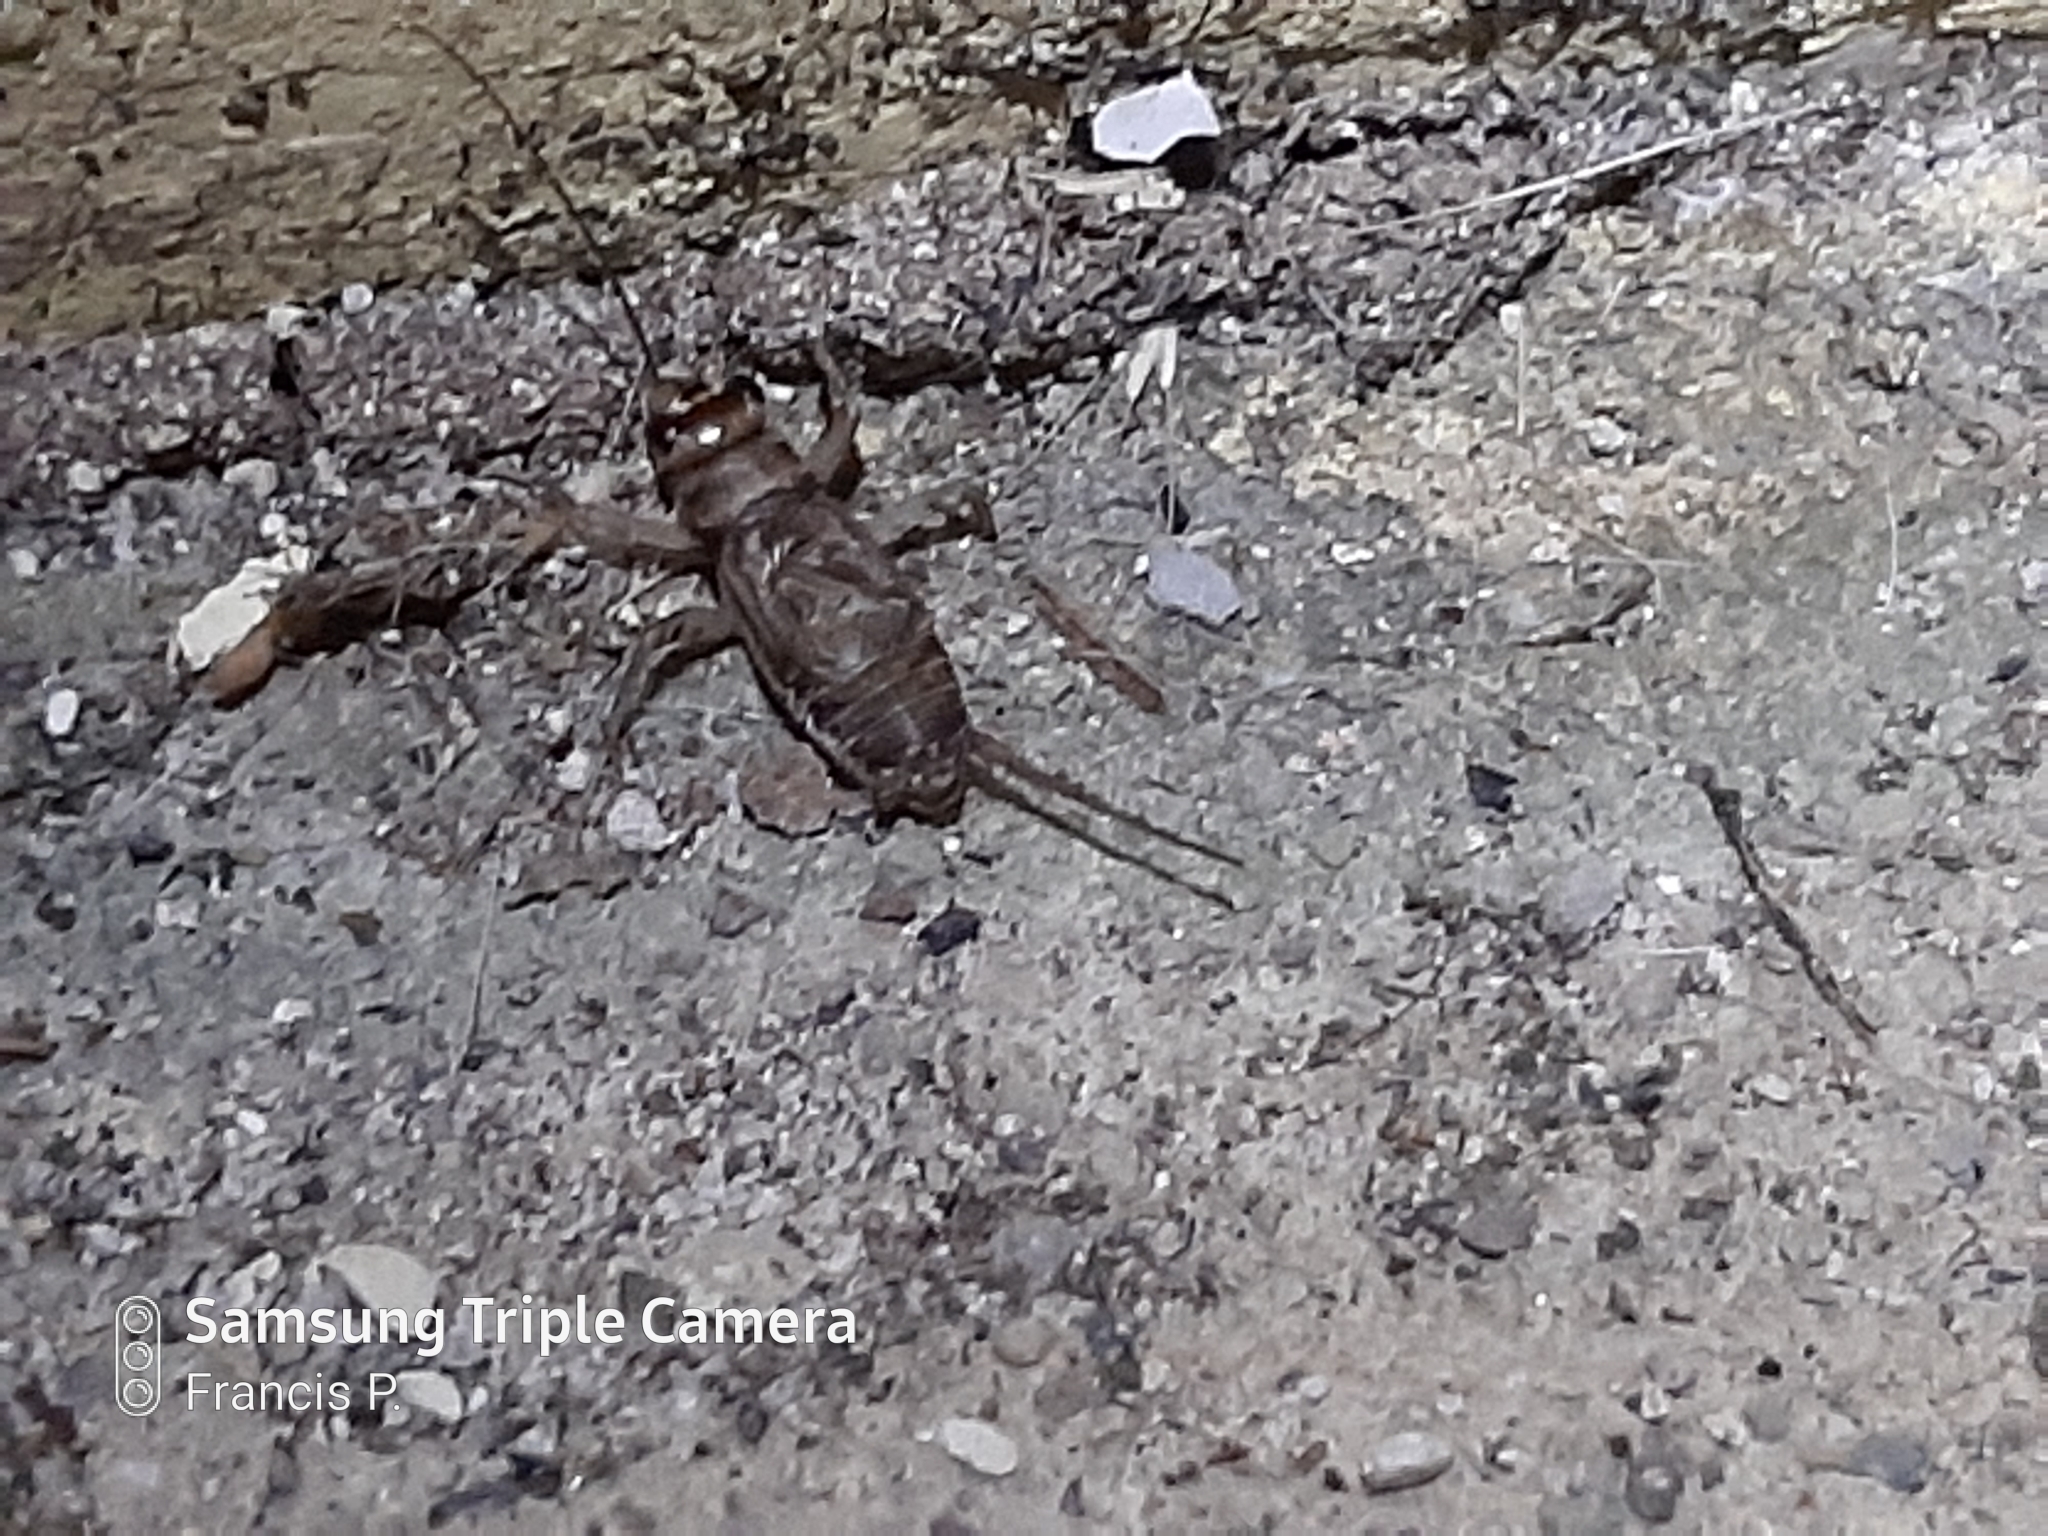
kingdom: Animalia
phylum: Arthropoda
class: Insecta
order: Orthoptera
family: Gryllidae
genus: Gryllodes
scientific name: Gryllodes sigillatus
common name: Tropical house cricket
